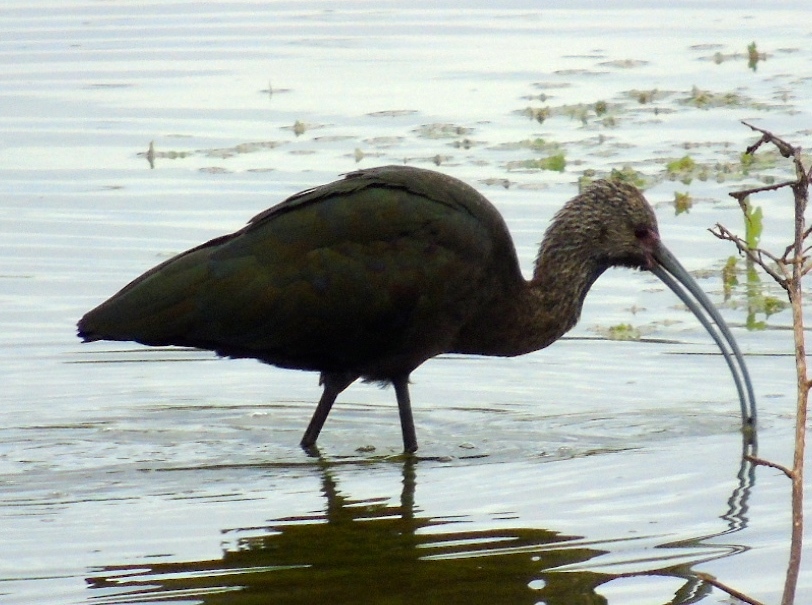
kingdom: Animalia
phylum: Chordata
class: Aves
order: Pelecaniformes
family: Threskiornithidae
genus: Plegadis
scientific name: Plegadis chihi
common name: White-faced ibis
